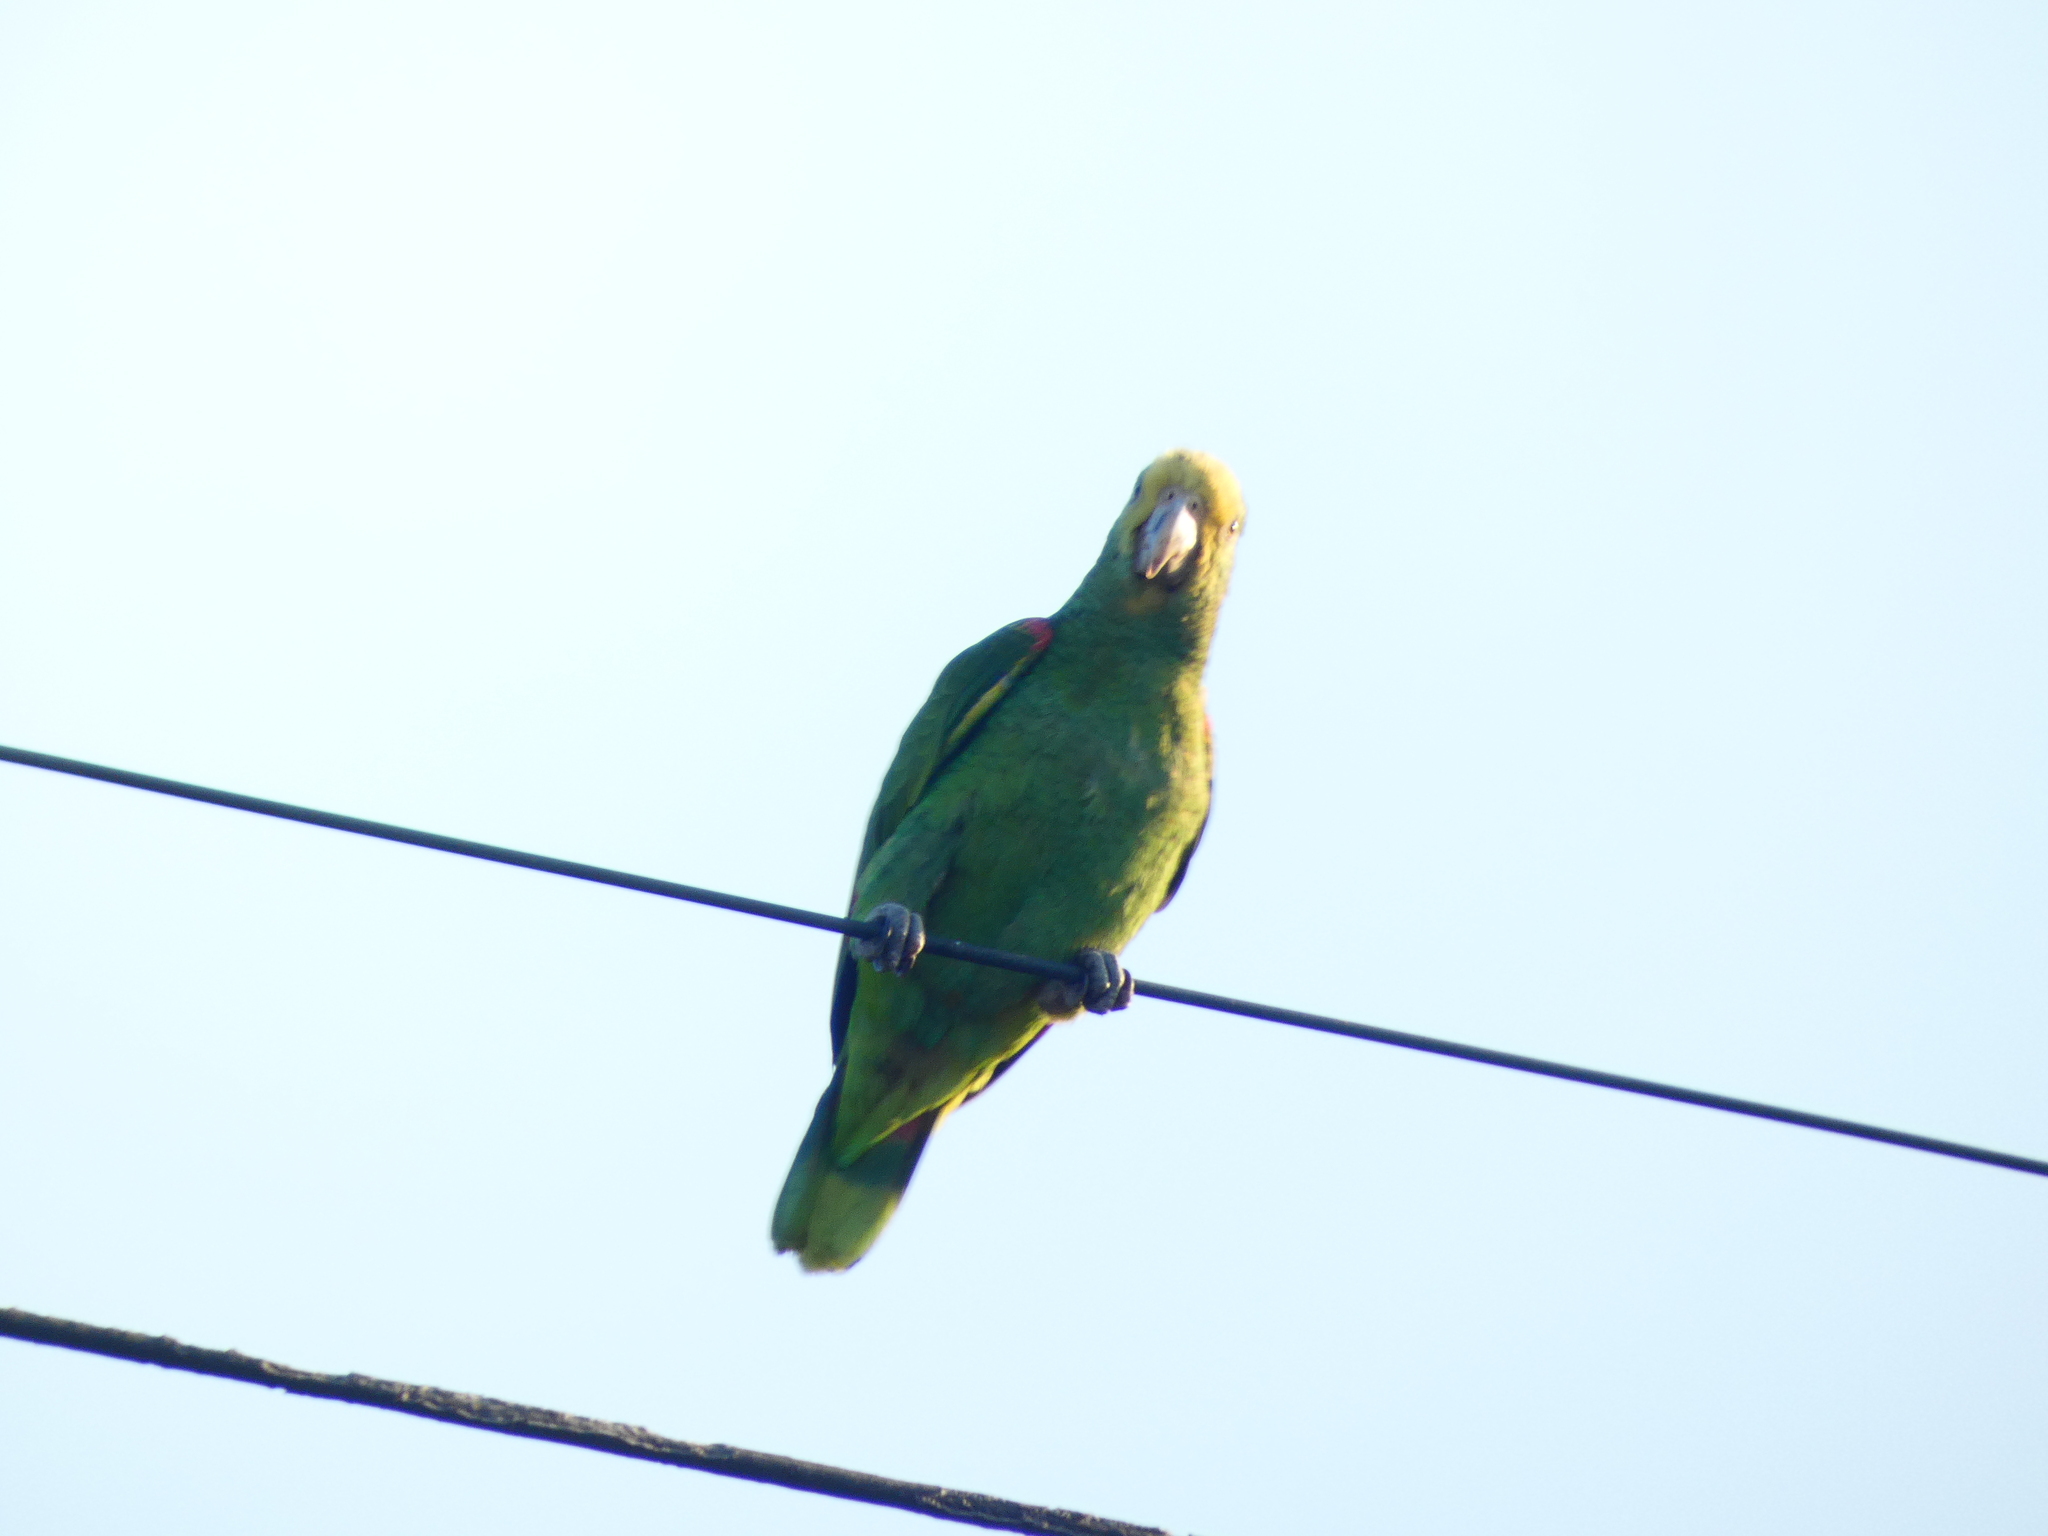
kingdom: Animalia
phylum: Chordata
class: Aves
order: Psittaciformes
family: Psittacidae
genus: Amazona
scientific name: Amazona oratrix
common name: Yellow-headed amazon
